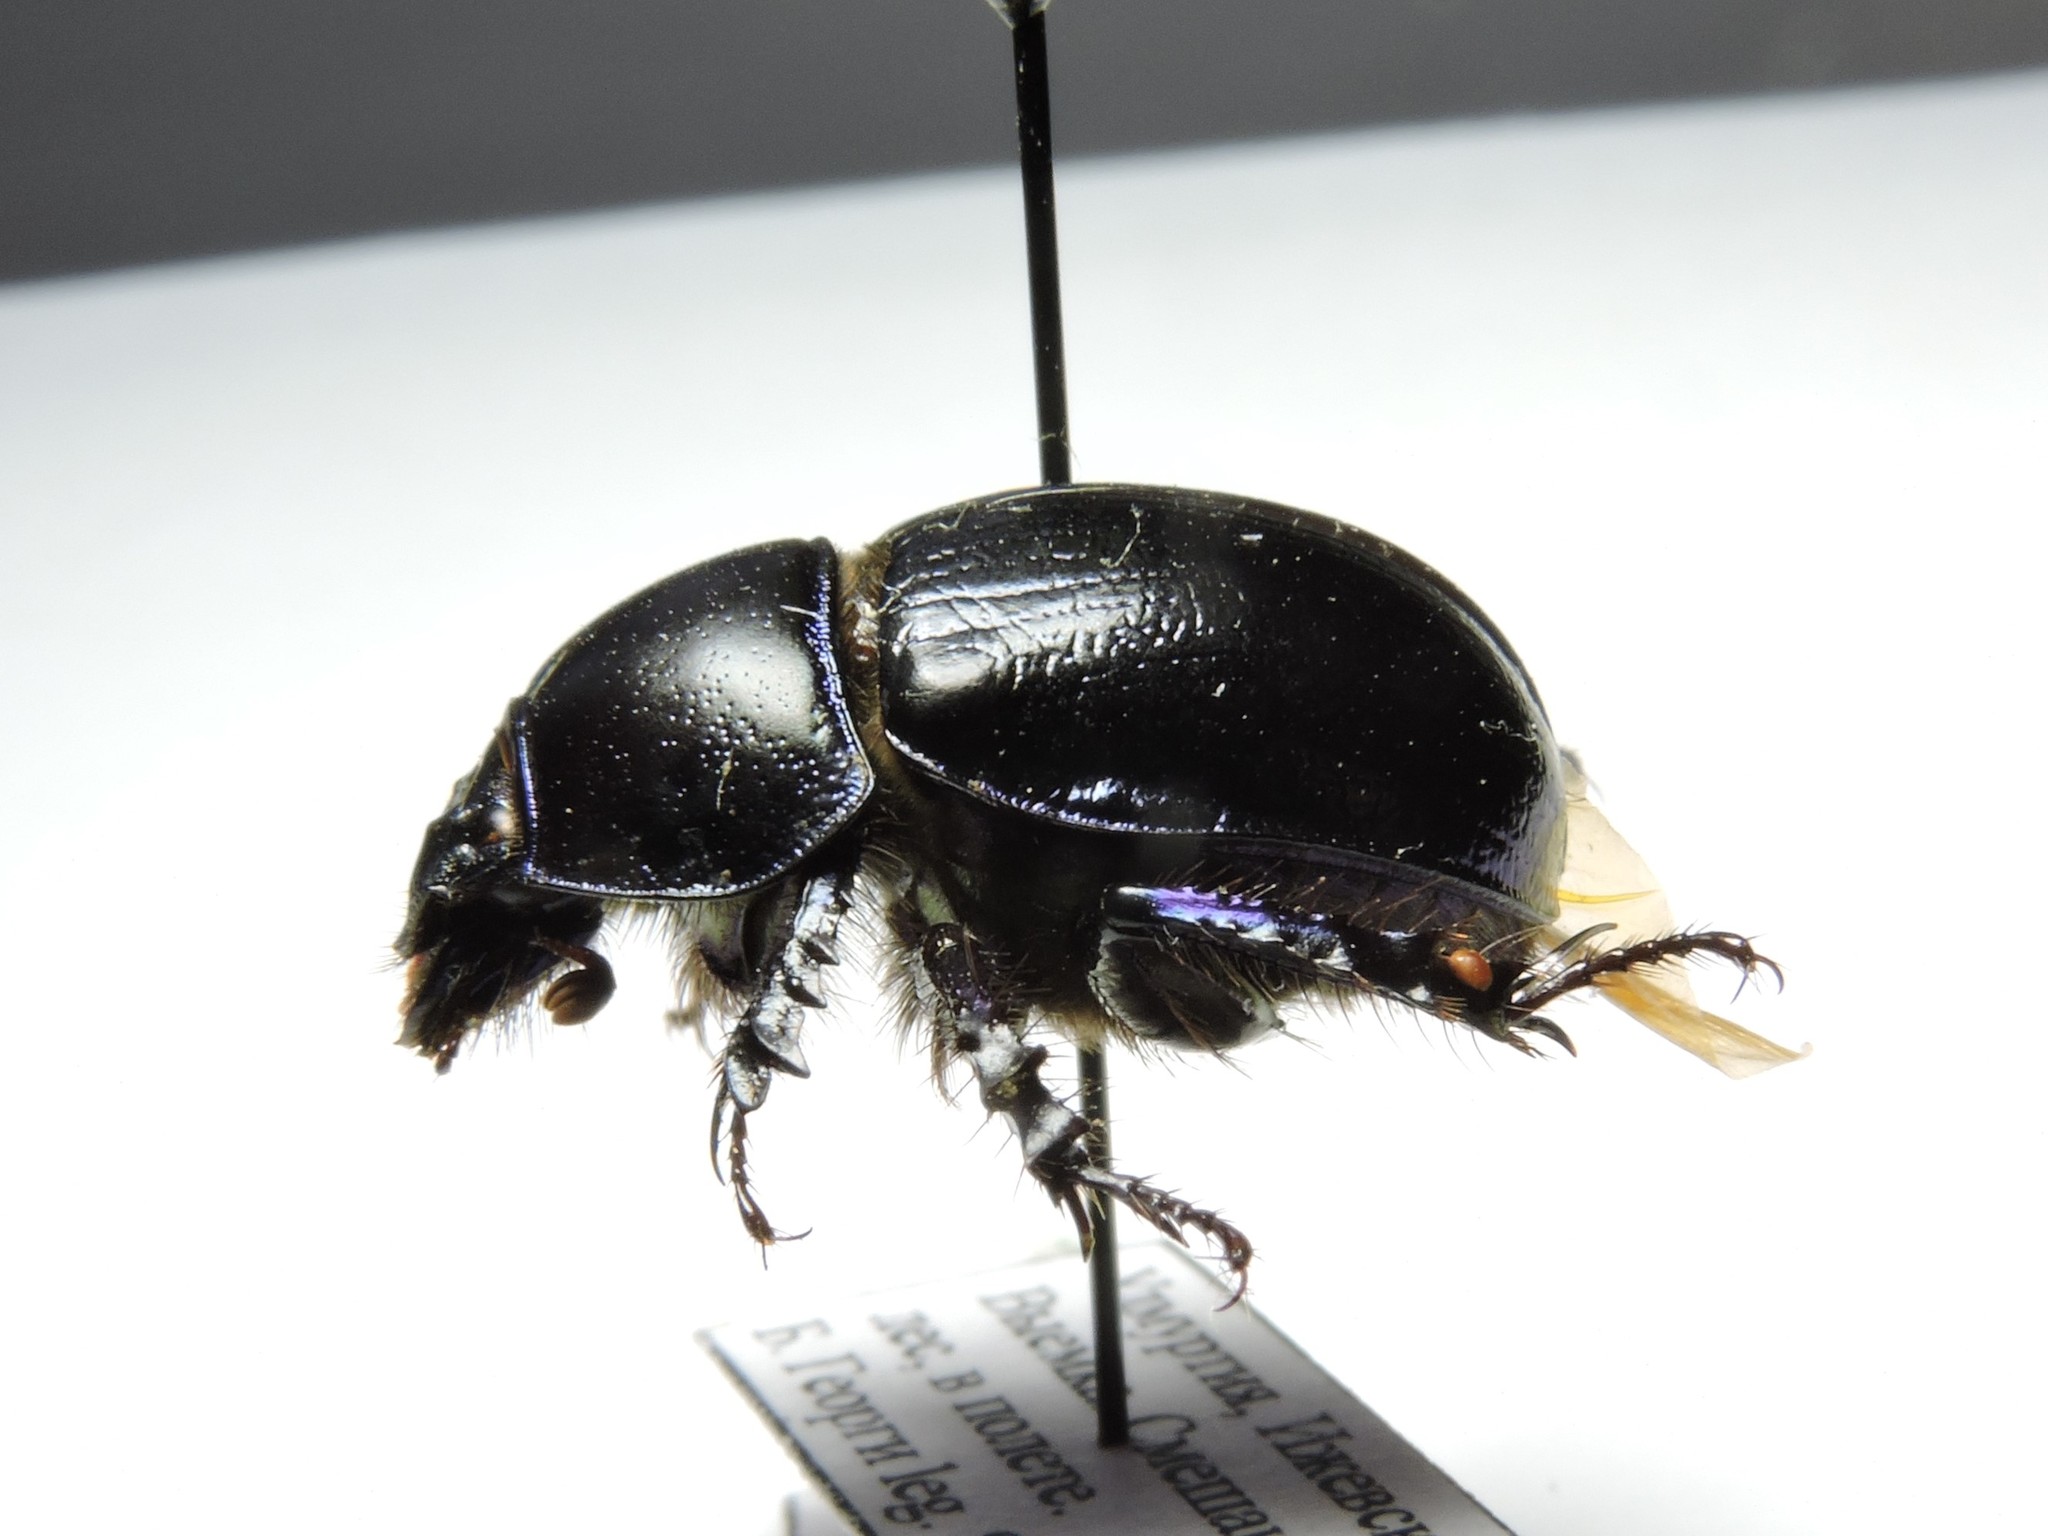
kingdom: Animalia
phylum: Arthropoda
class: Insecta
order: Coleoptera
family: Geotrupidae
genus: Anoplotrupes
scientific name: Anoplotrupes stercorosus
